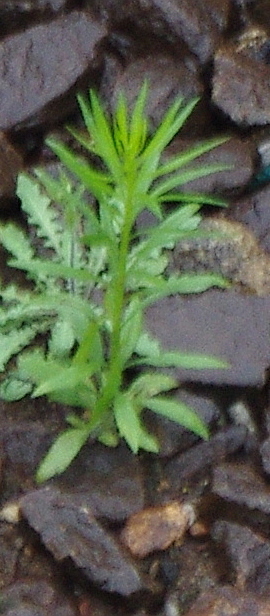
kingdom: Plantae
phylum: Tracheophyta
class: Magnoliopsida
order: Asterales
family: Asteraceae
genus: Erigeron
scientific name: Erigeron canadensis
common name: Canadian fleabane
